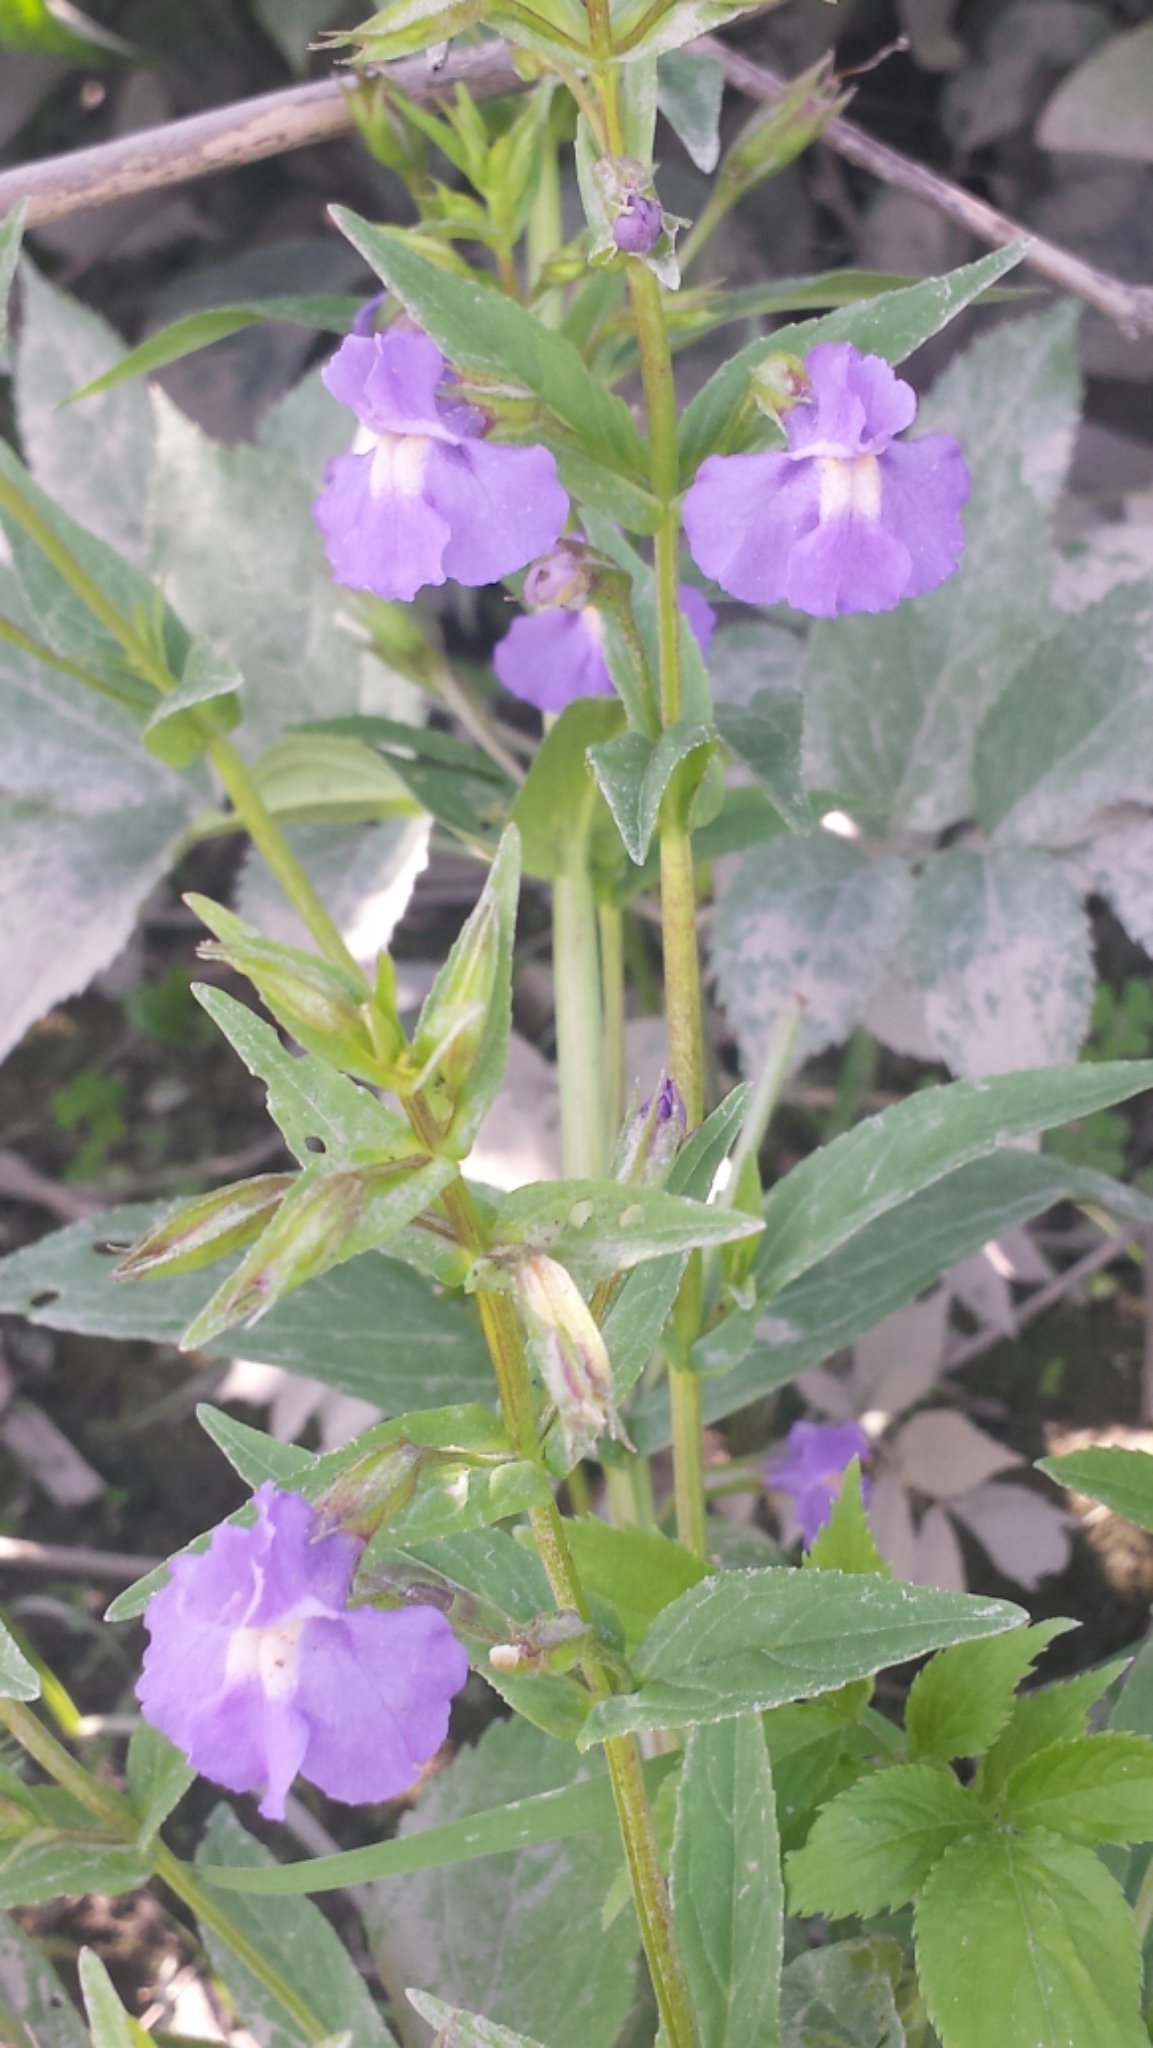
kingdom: Plantae
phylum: Tracheophyta
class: Magnoliopsida
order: Lamiales
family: Phrymaceae
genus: Mimulus
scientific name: Mimulus ringens
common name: Allegheny monkeyflower
